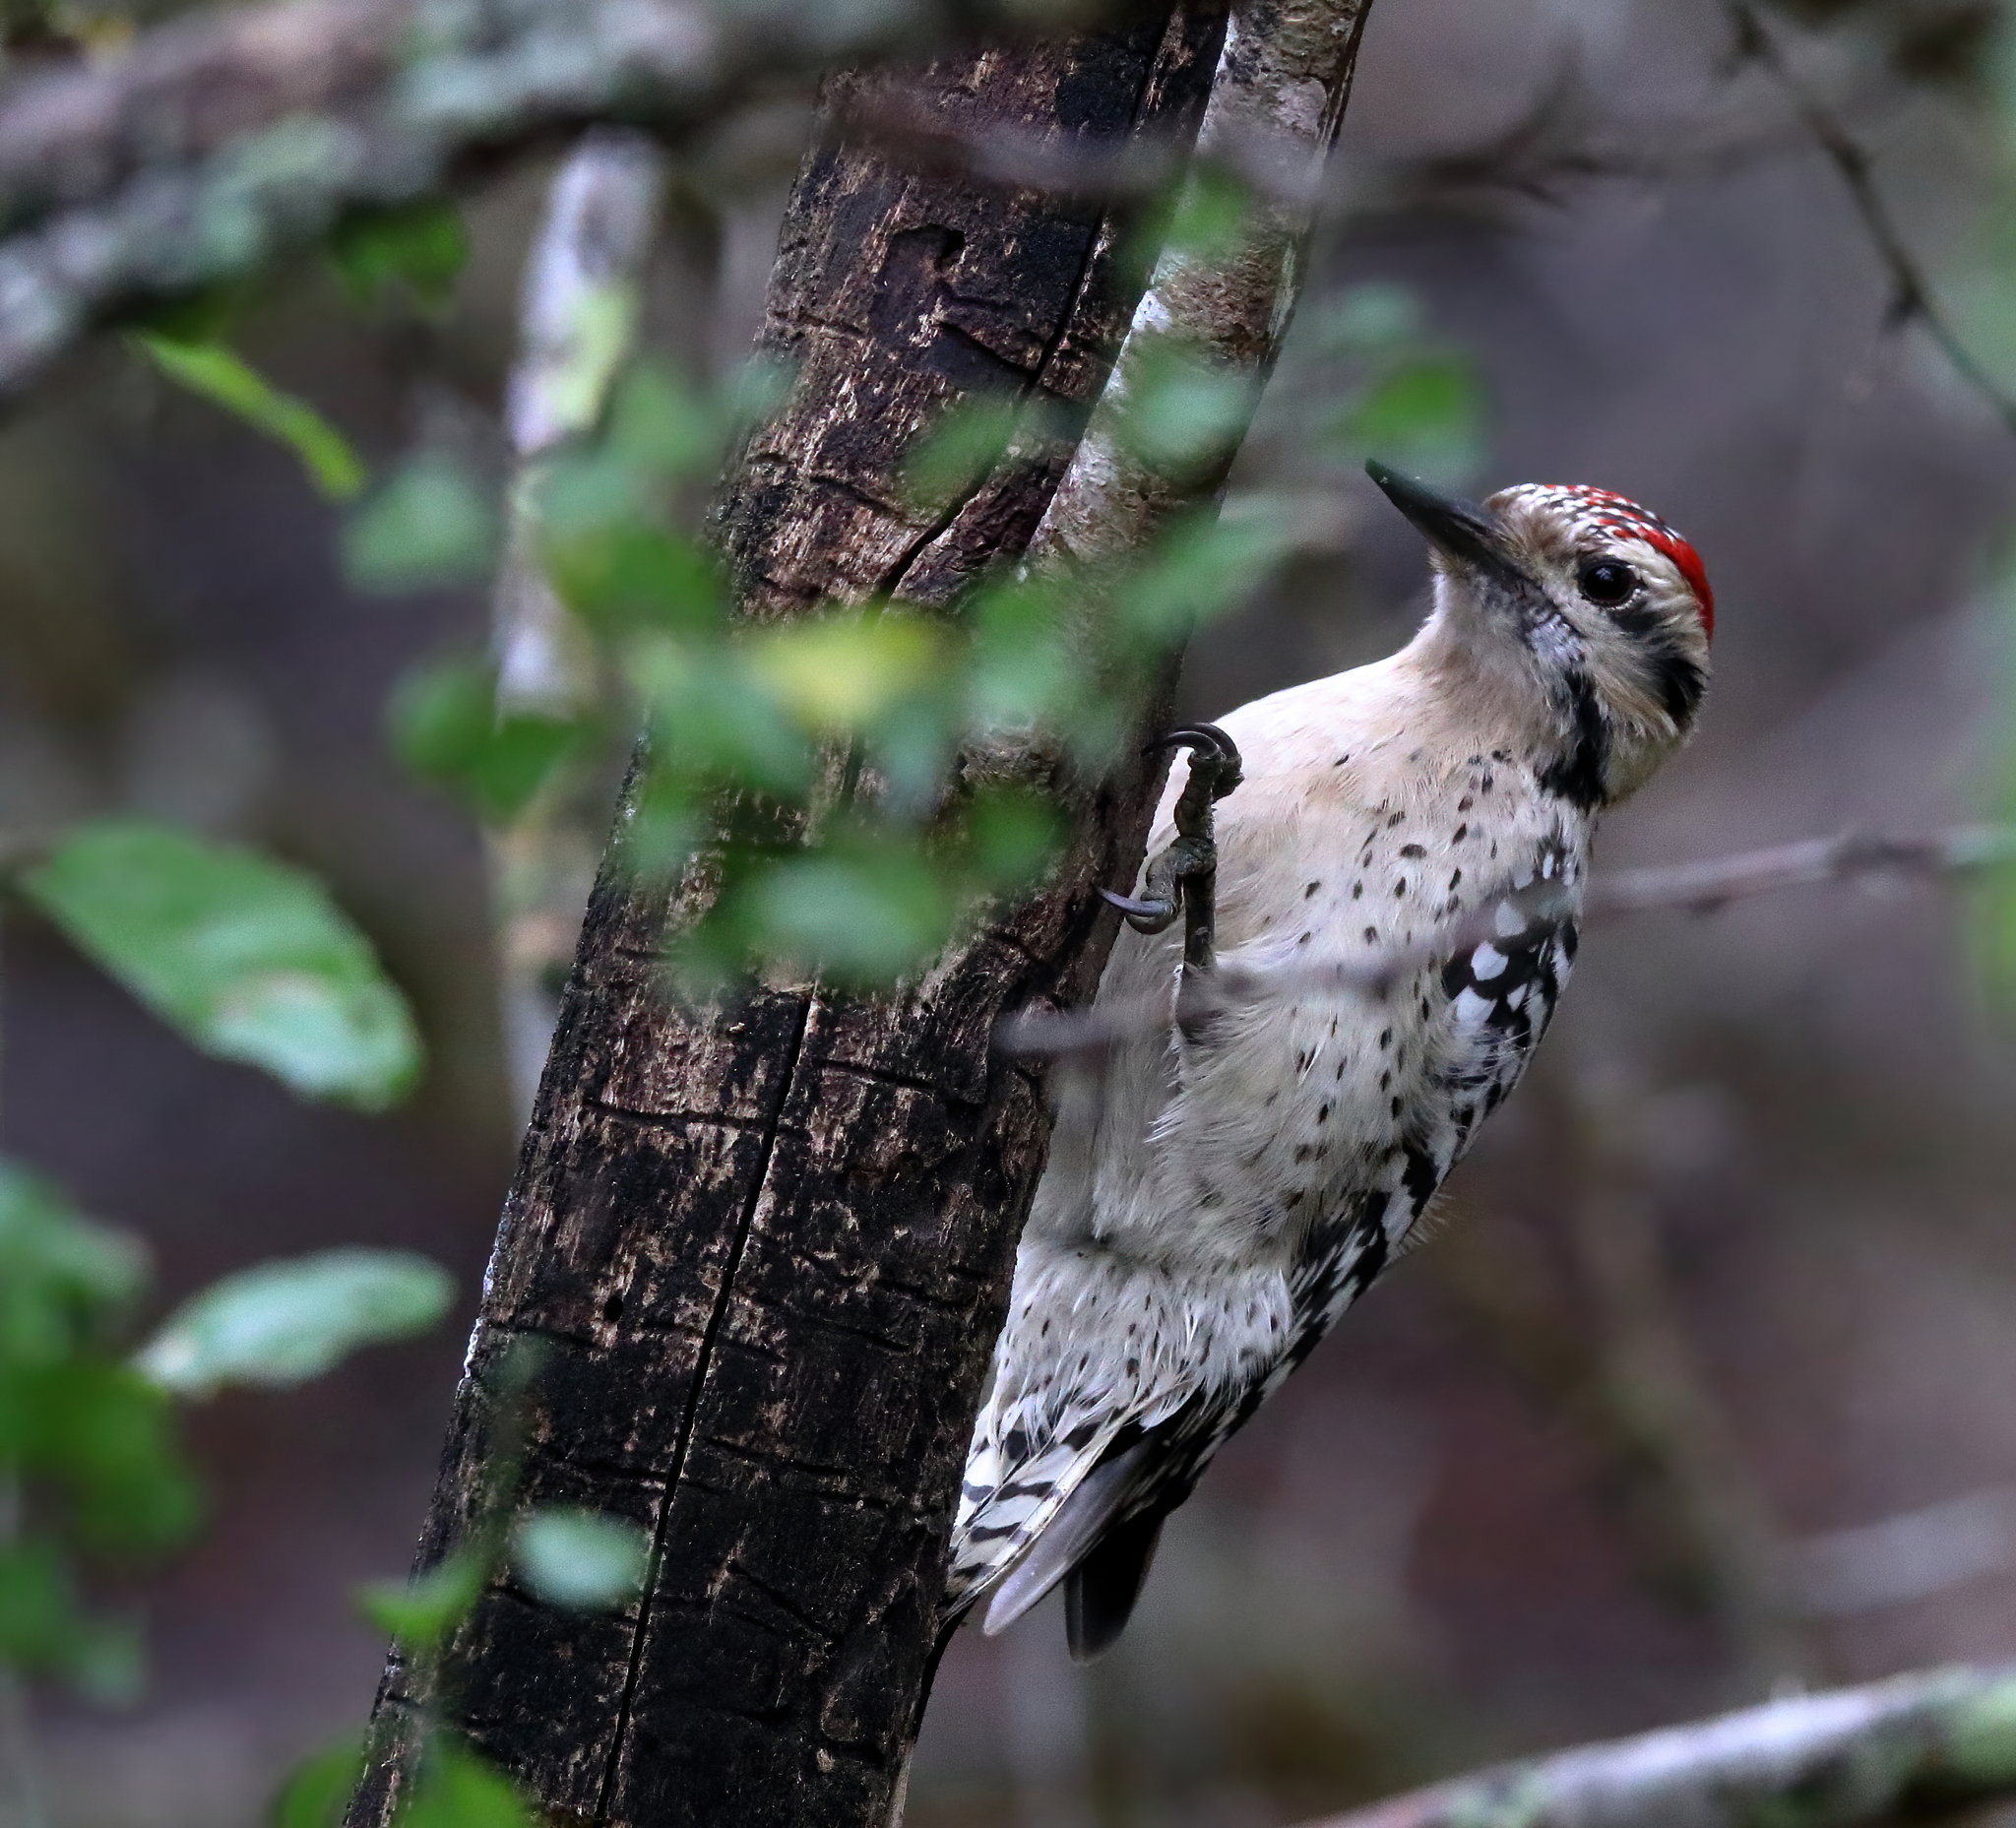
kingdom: Animalia
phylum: Chordata
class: Aves
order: Piciformes
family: Picidae
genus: Dryobates
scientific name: Dryobates scalaris
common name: Ladder-backed woodpecker
